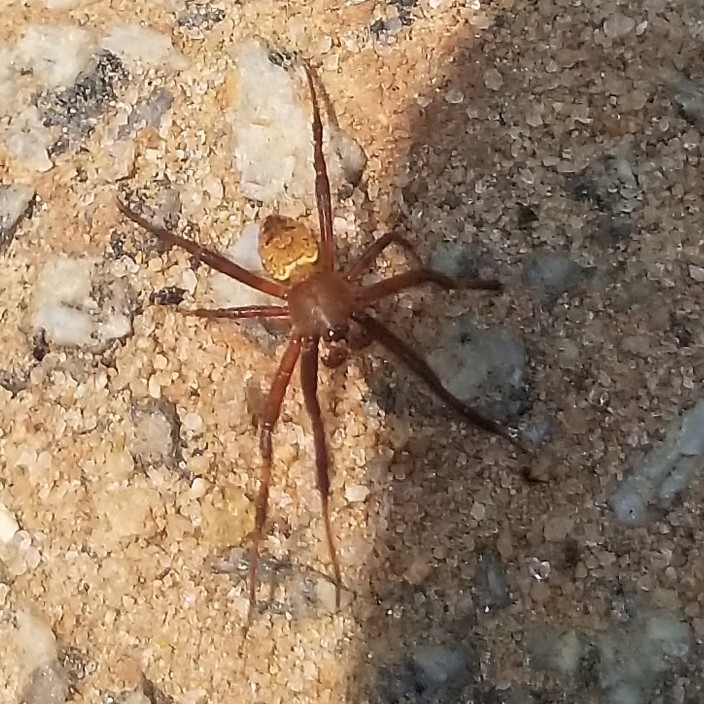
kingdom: Animalia
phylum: Arthropoda
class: Arachnida
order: Araneae
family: Araneidae
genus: Gea
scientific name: Gea heptagon
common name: Orb weavers
